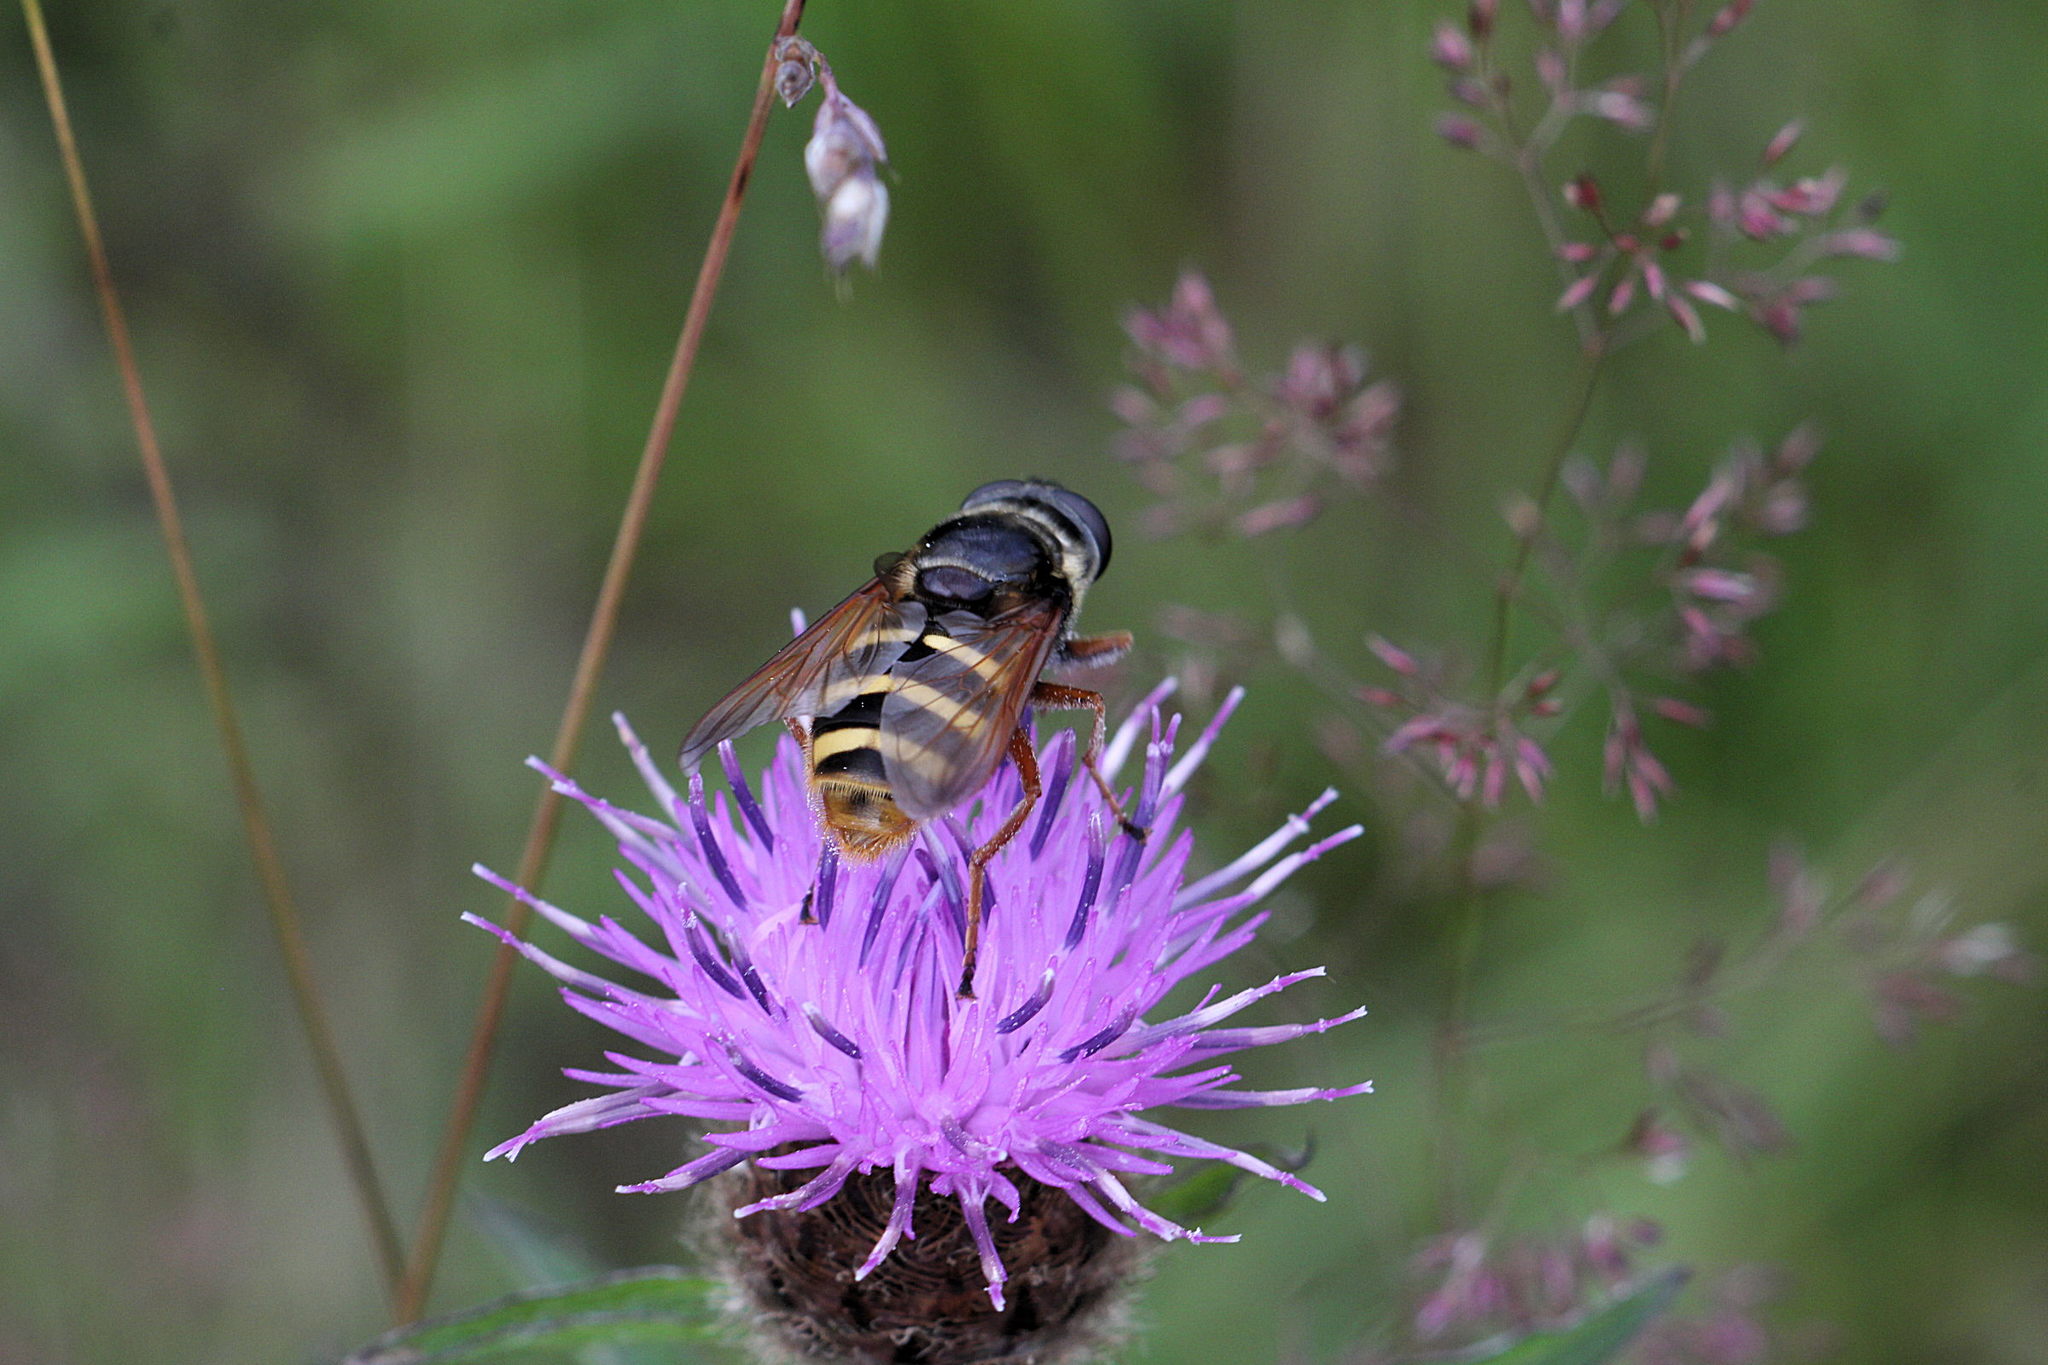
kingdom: Animalia
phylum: Arthropoda
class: Insecta
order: Diptera
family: Syrphidae
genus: Sericomyia
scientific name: Sericomyia silentis
